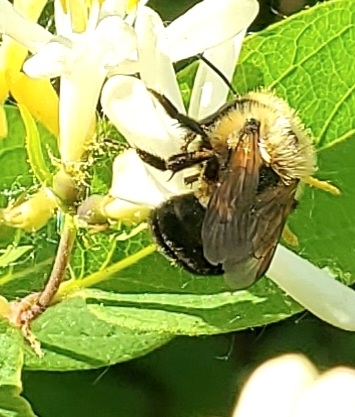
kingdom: Animalia
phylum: Arthropoda
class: Insecta
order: Hymenoptera
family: Megachilidae
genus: Osmia
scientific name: Osmia bucephala
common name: Bufflehead mason bee
